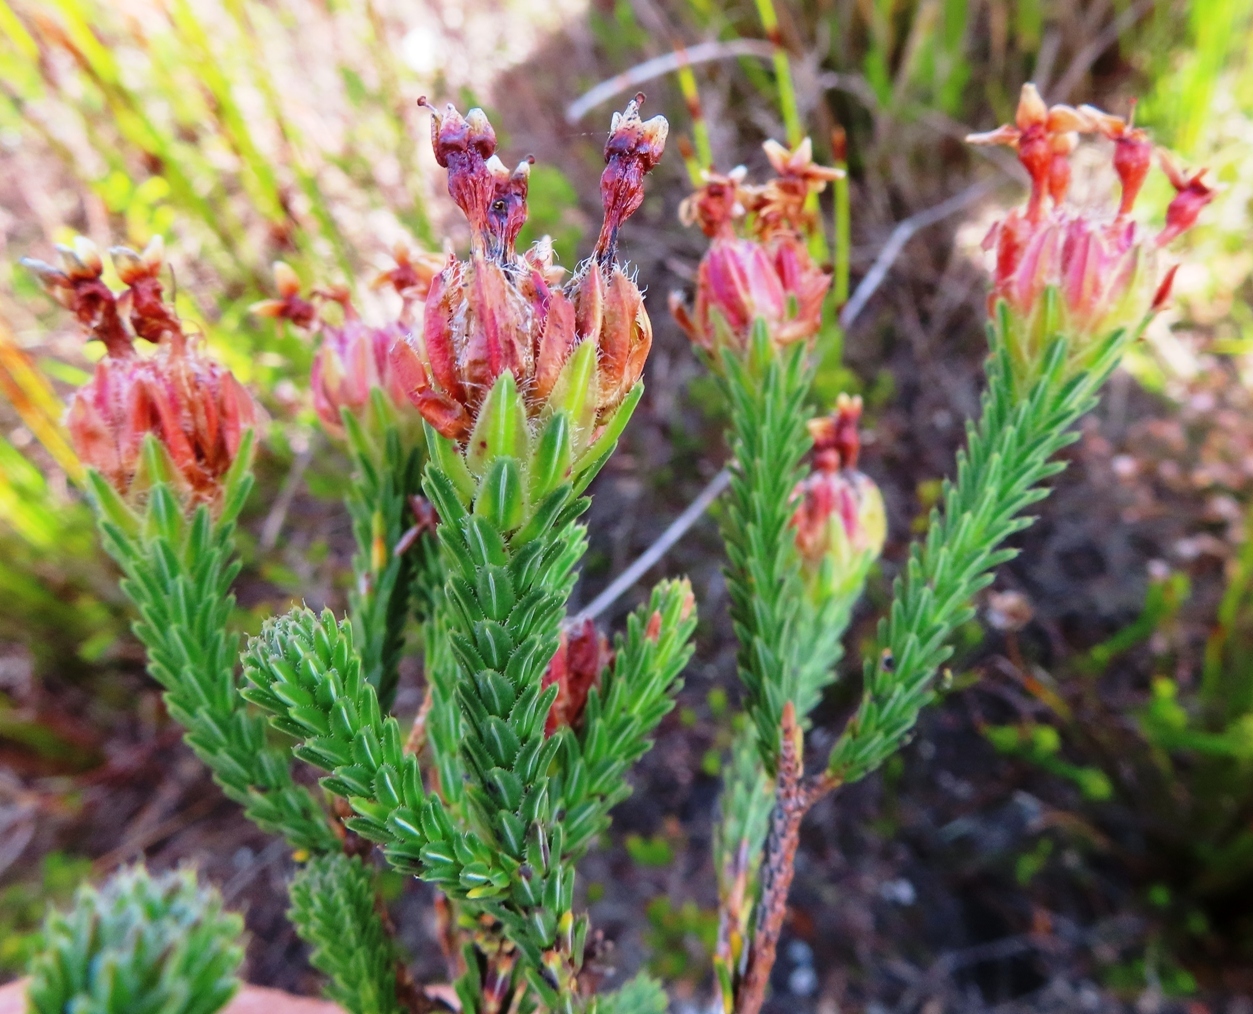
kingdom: Plantae
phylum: Tracheophyta
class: Magnoliopsida
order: Ericales
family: Ericaceae
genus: Erica
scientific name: Erica ampullacea
